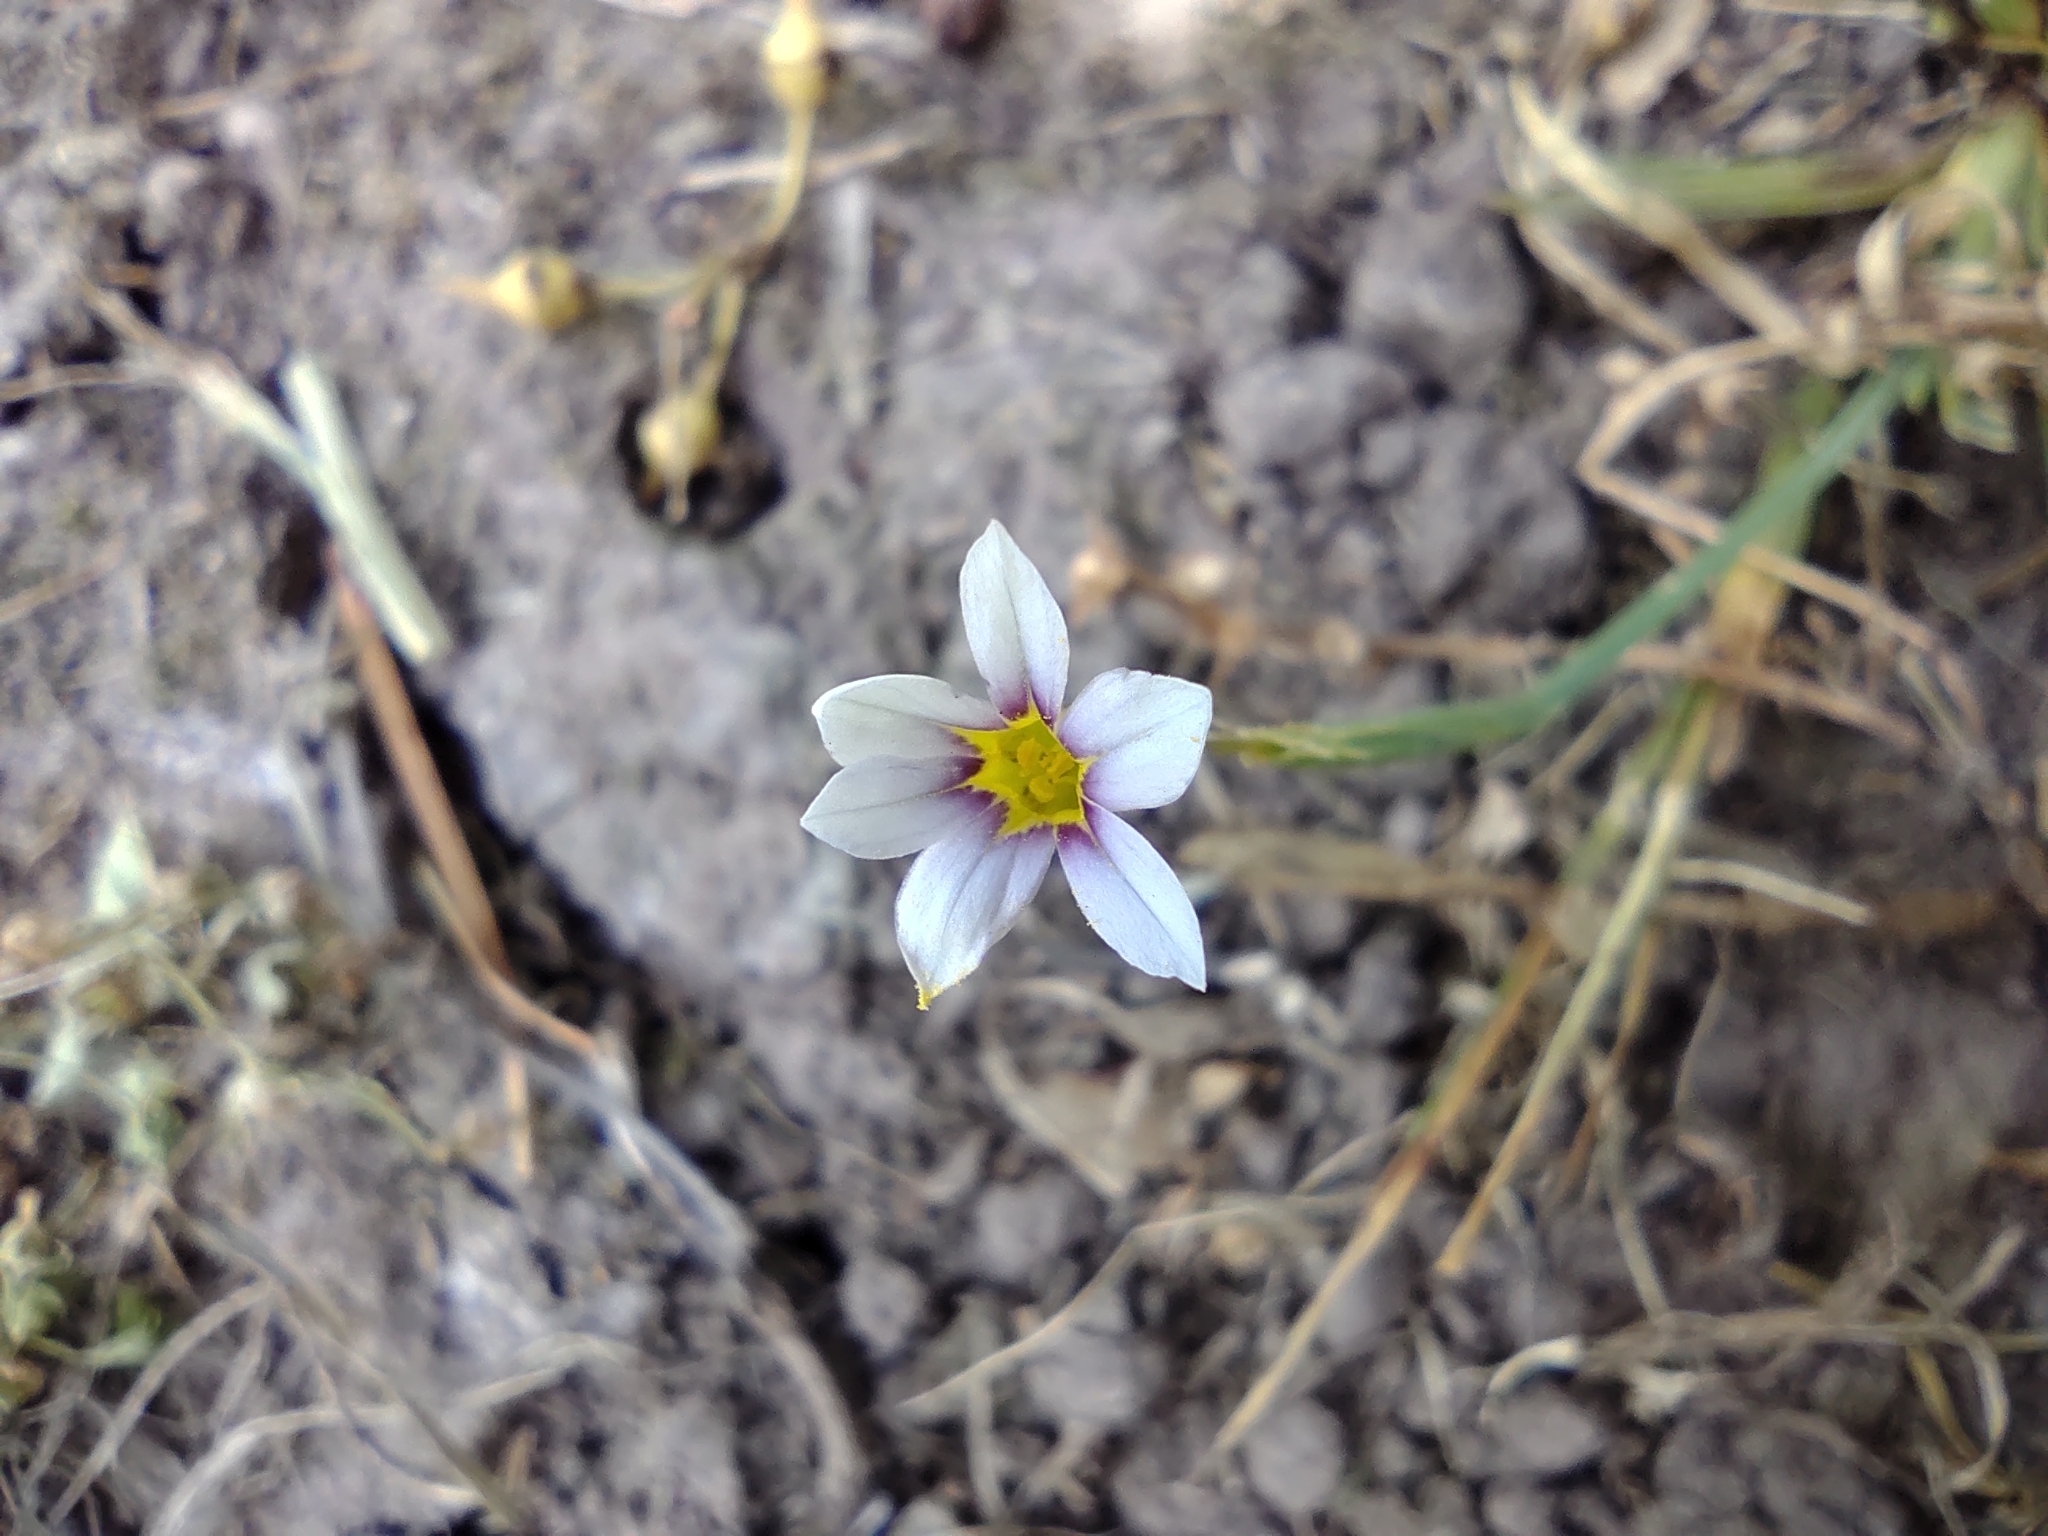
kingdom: Plantae
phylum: Tracheophyta
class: Liliopsida
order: Asparagales
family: Iridaceae
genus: Sisyrinchium
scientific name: Sisyrinchium micranthum
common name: Bermuda pigroot
